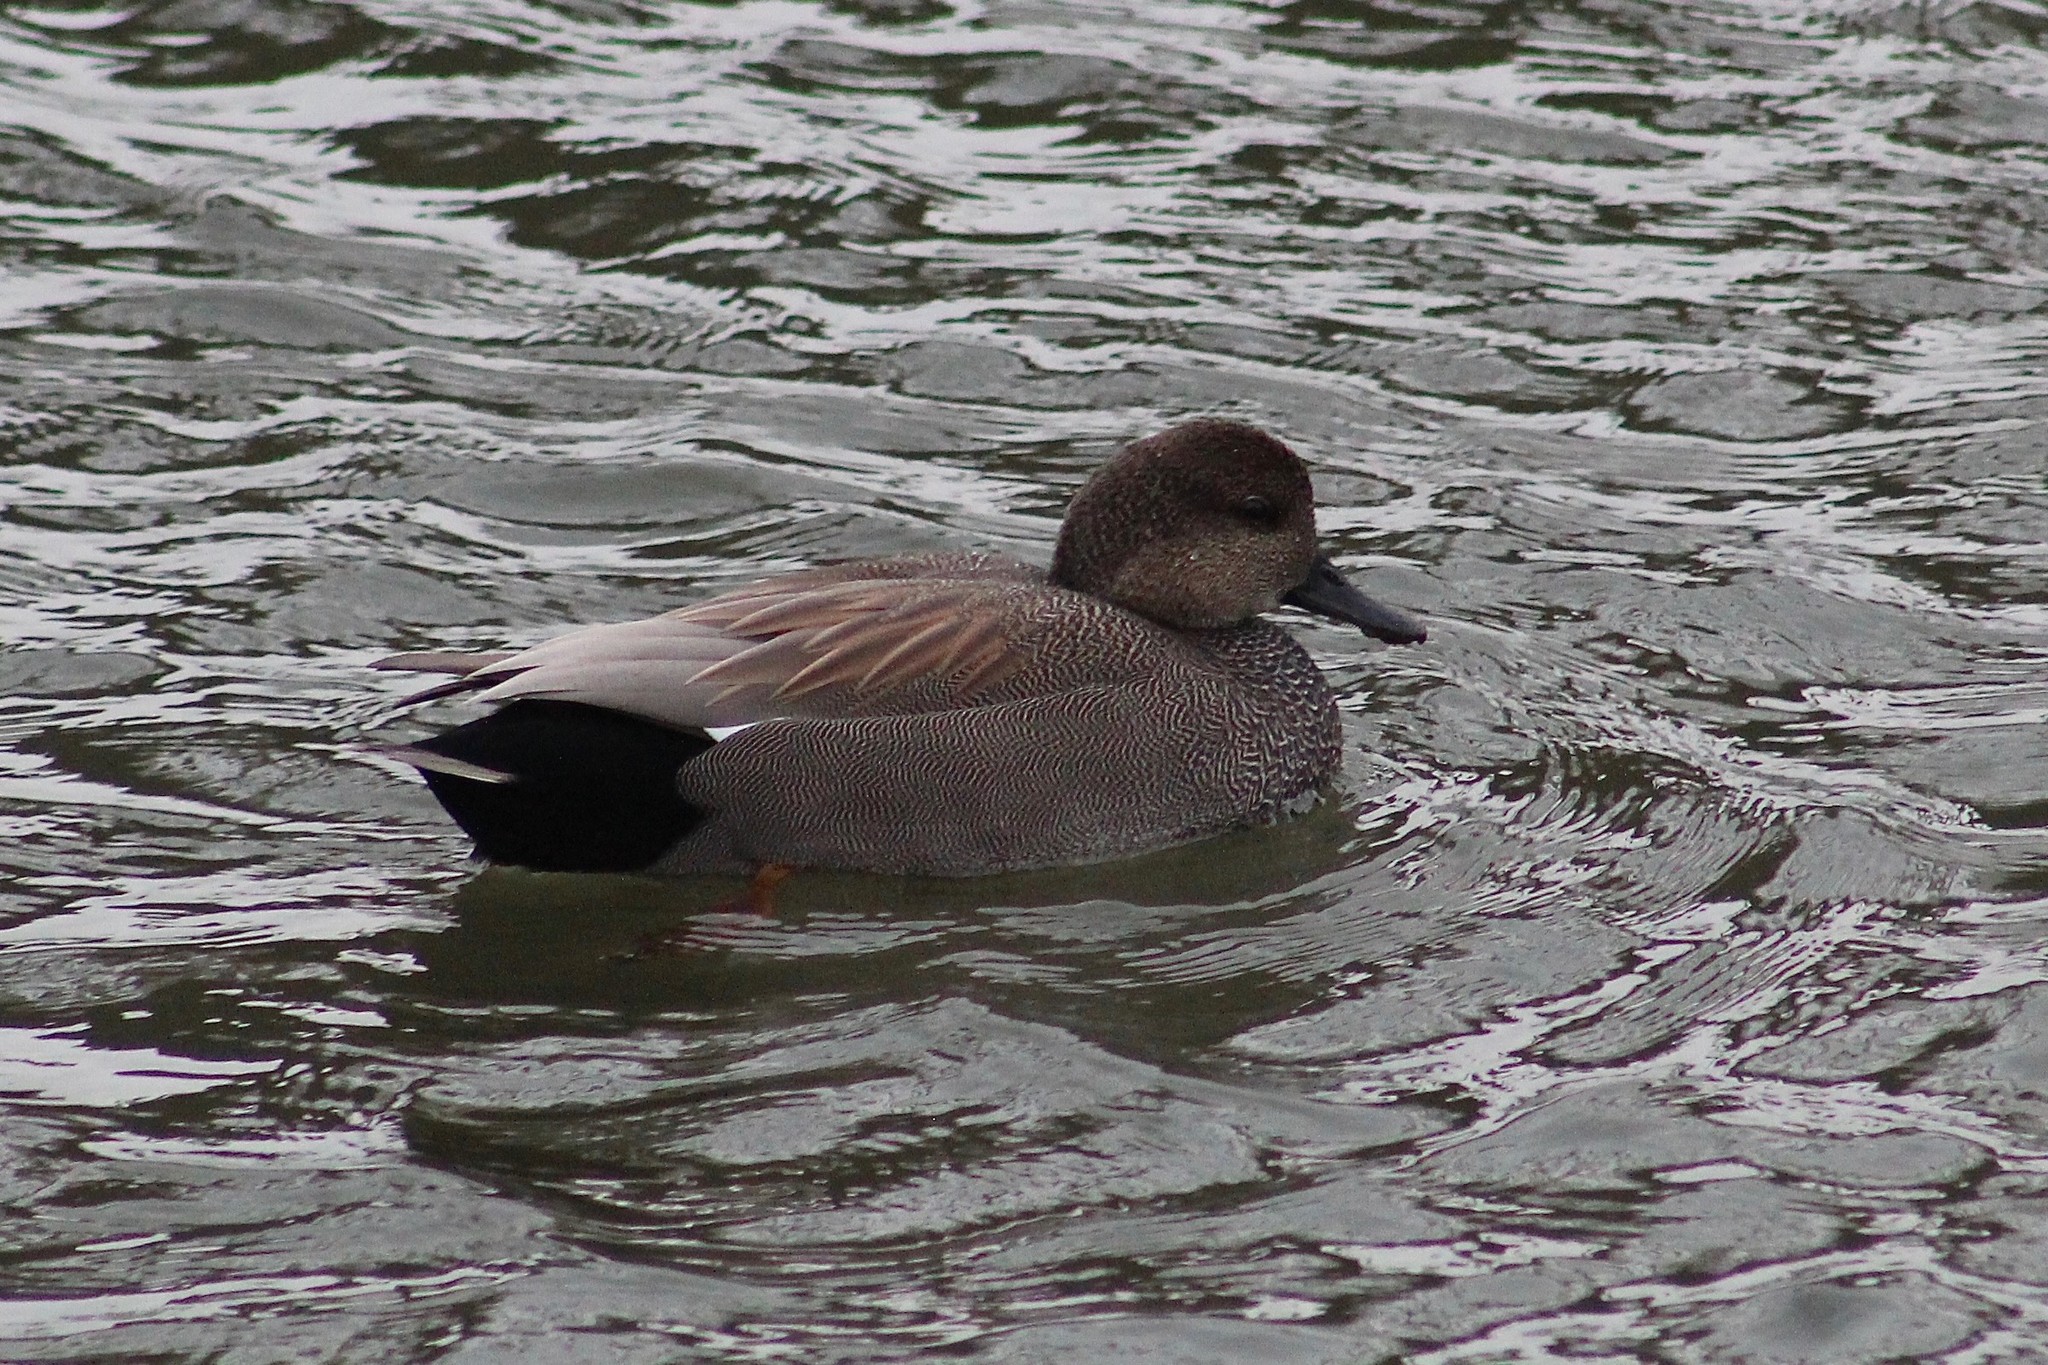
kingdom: Animalia
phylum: Chordata
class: Aves
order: Anseriformes
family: Anatidae
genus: Mareca
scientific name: Mareca strepera
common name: Gadwall
